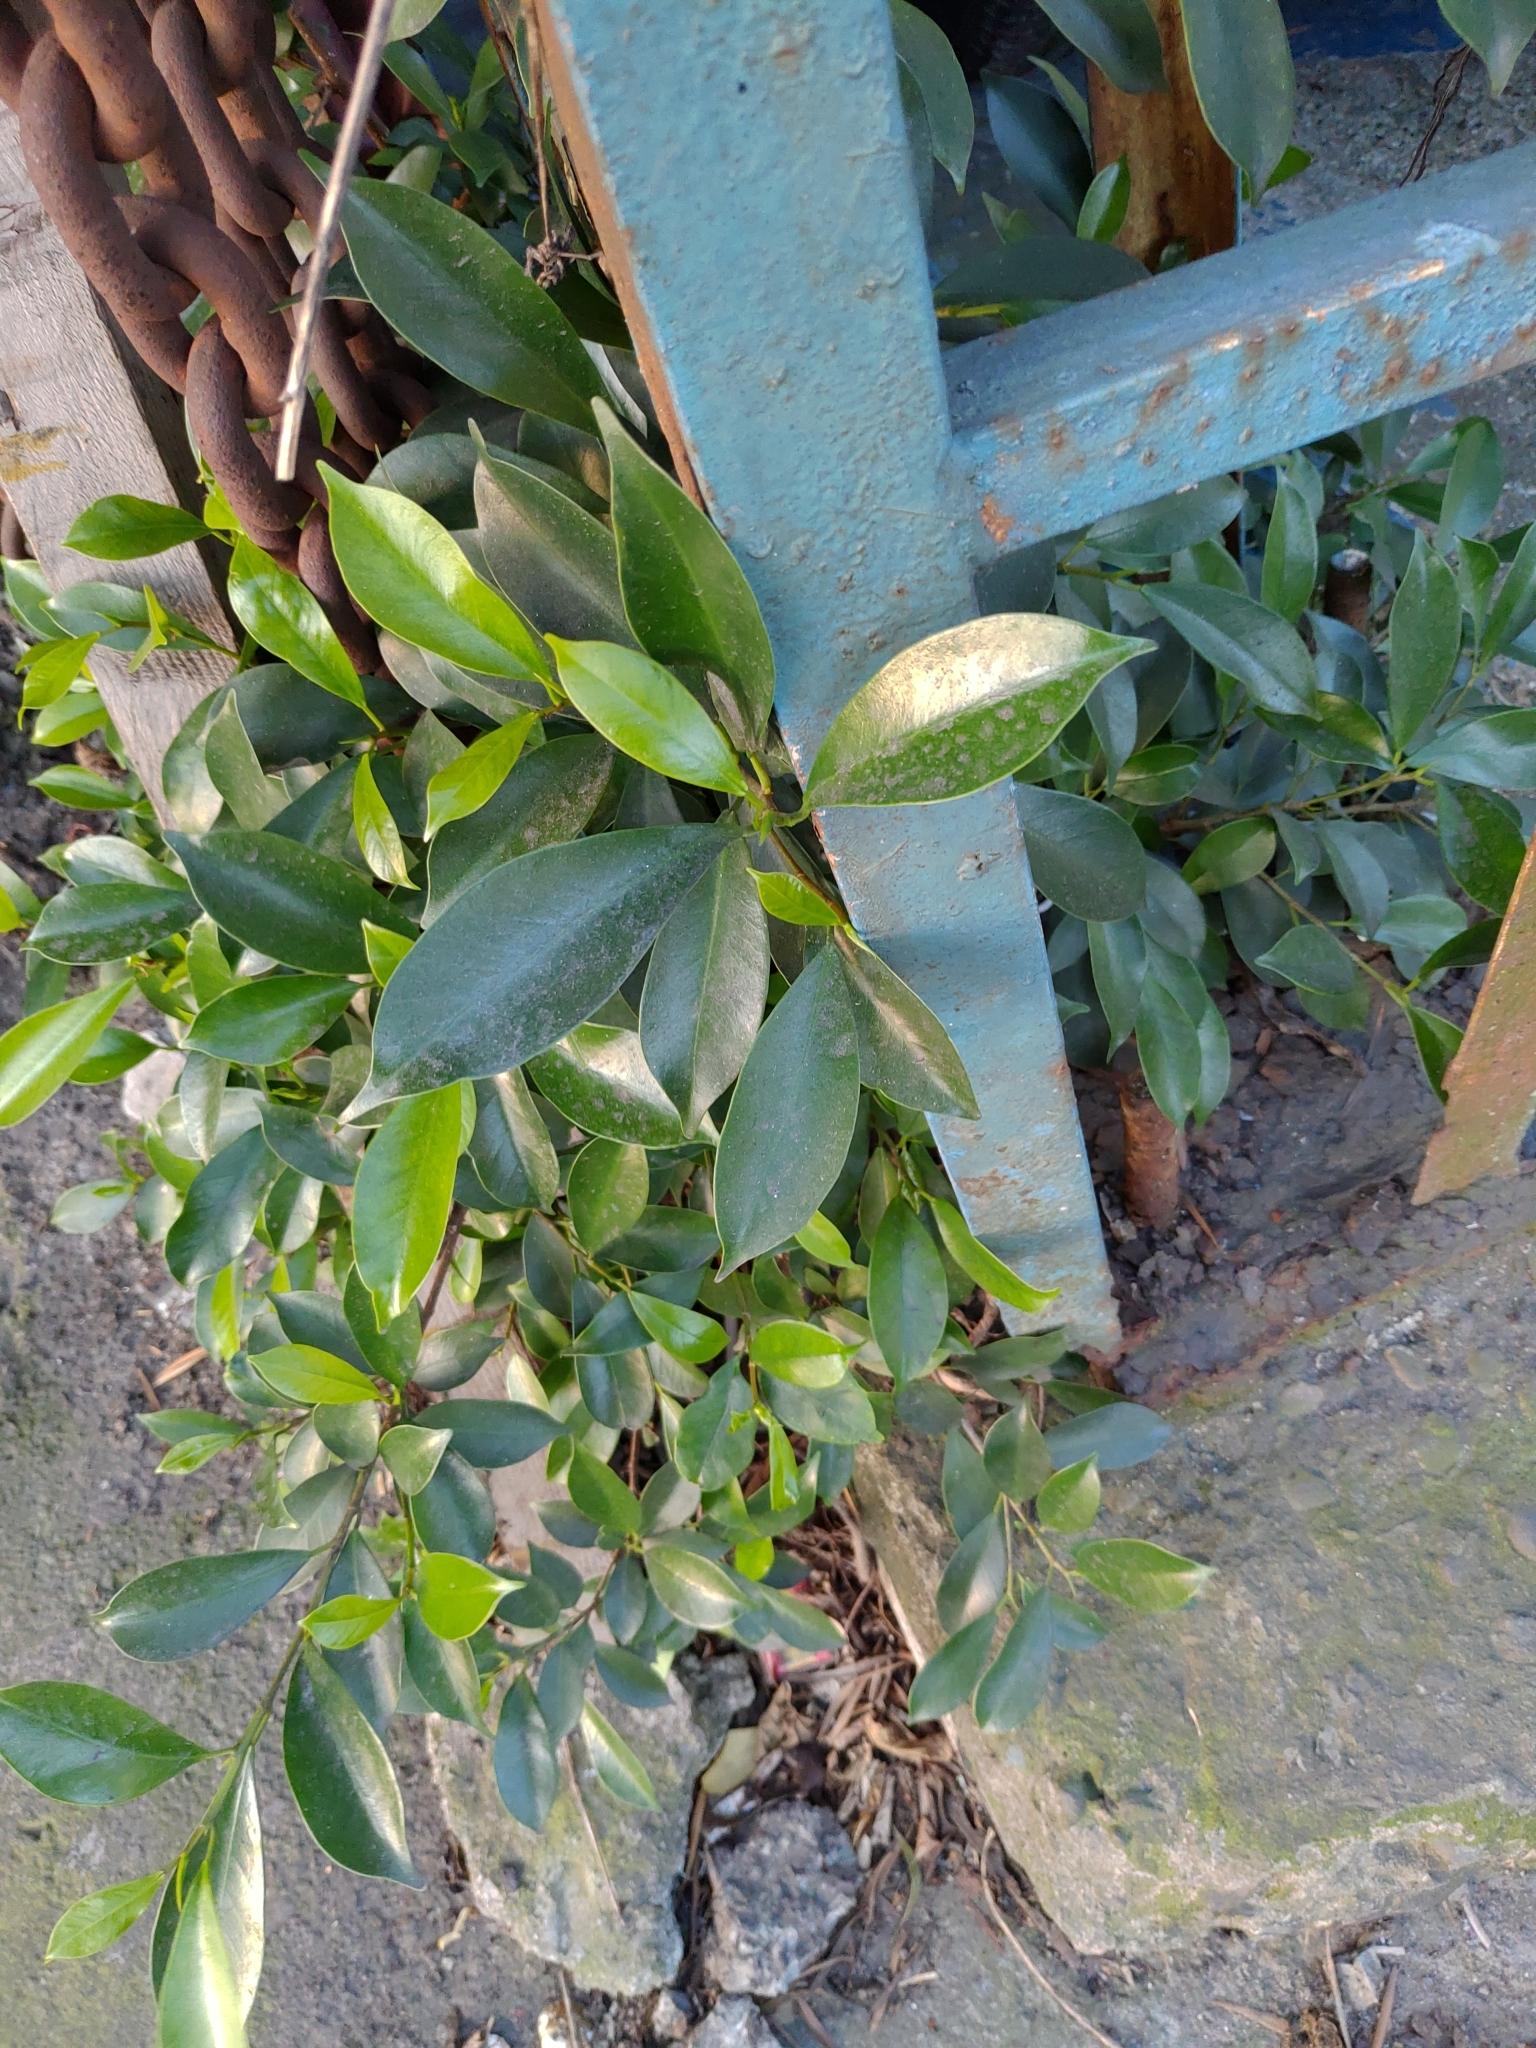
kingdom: Plantae
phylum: Tracheophyta
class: Magnoliopsida
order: Rosales
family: Moraceae
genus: Ficus
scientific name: Ficus microcarpa
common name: Chinese banyan
